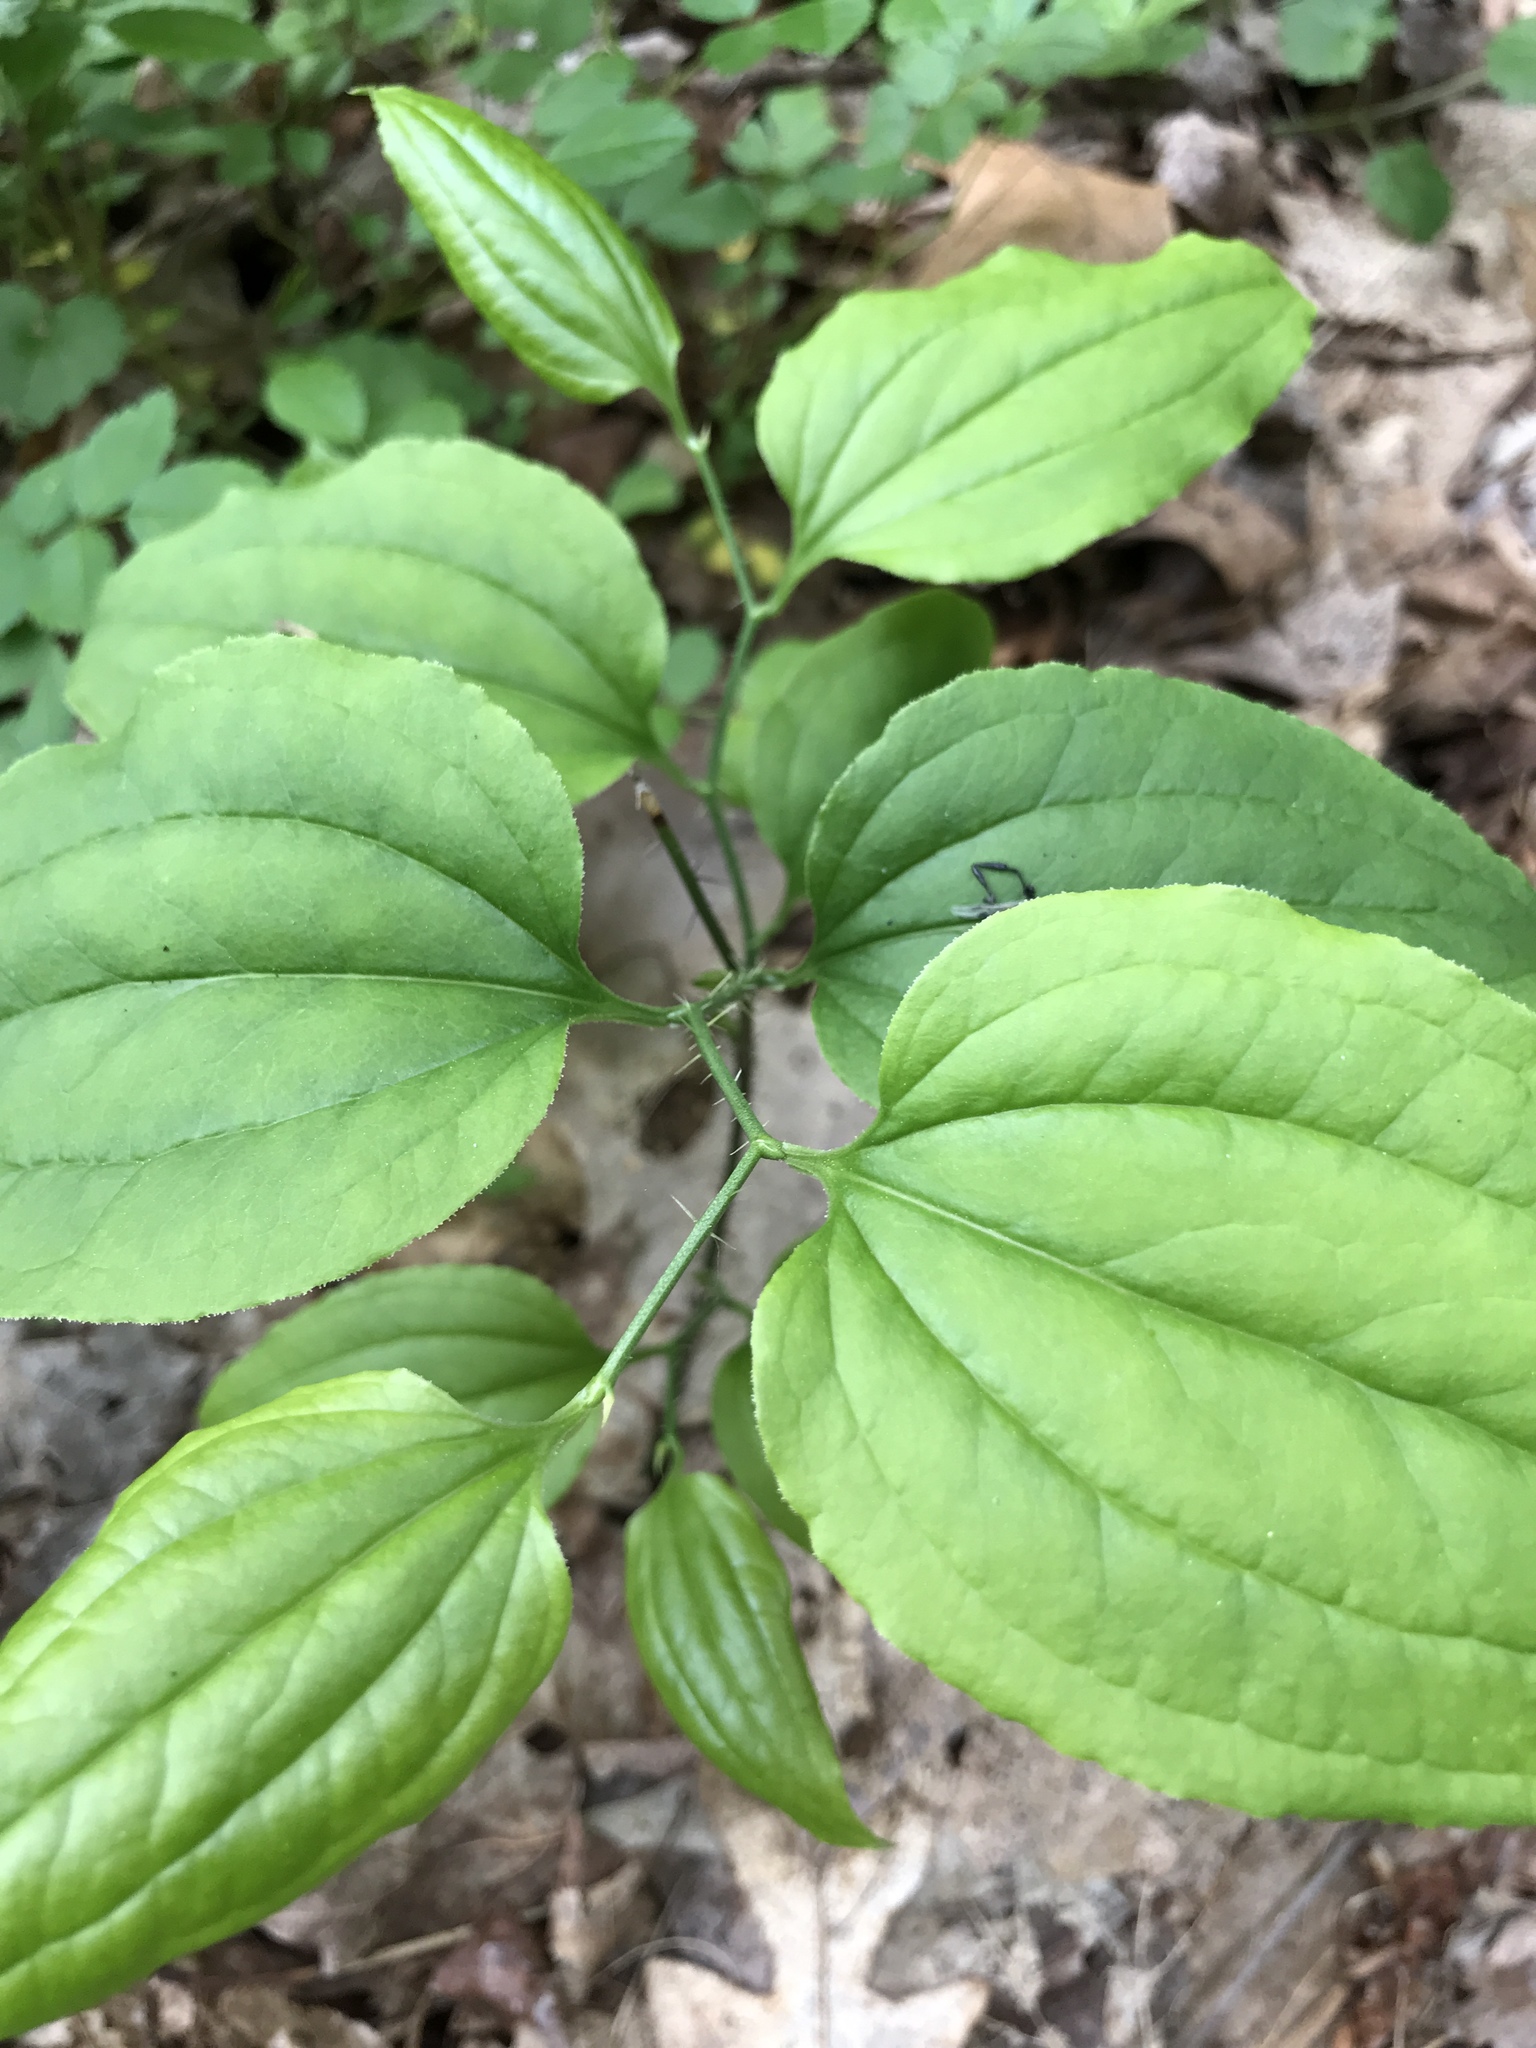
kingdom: Plantae
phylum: Tracheophyta
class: Liliopsida
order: Liliales
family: Smilacaceae
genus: Smilax
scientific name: Smilax tamnoides
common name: Hellfetter
